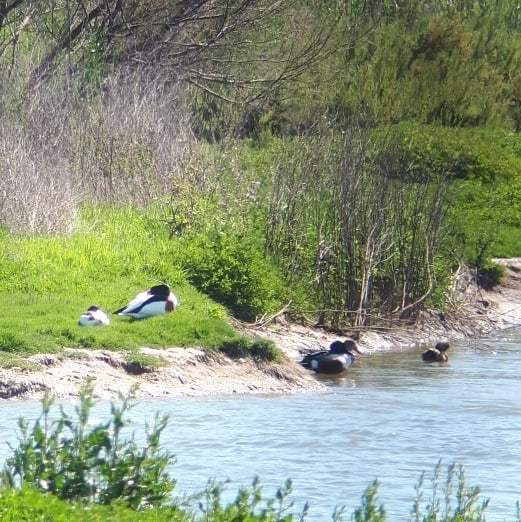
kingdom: Animalia
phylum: Chordata
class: Aves
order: Anseriformes
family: Anatidae
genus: Tadorna
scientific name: Tadorna tadorna
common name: Common shelduck
